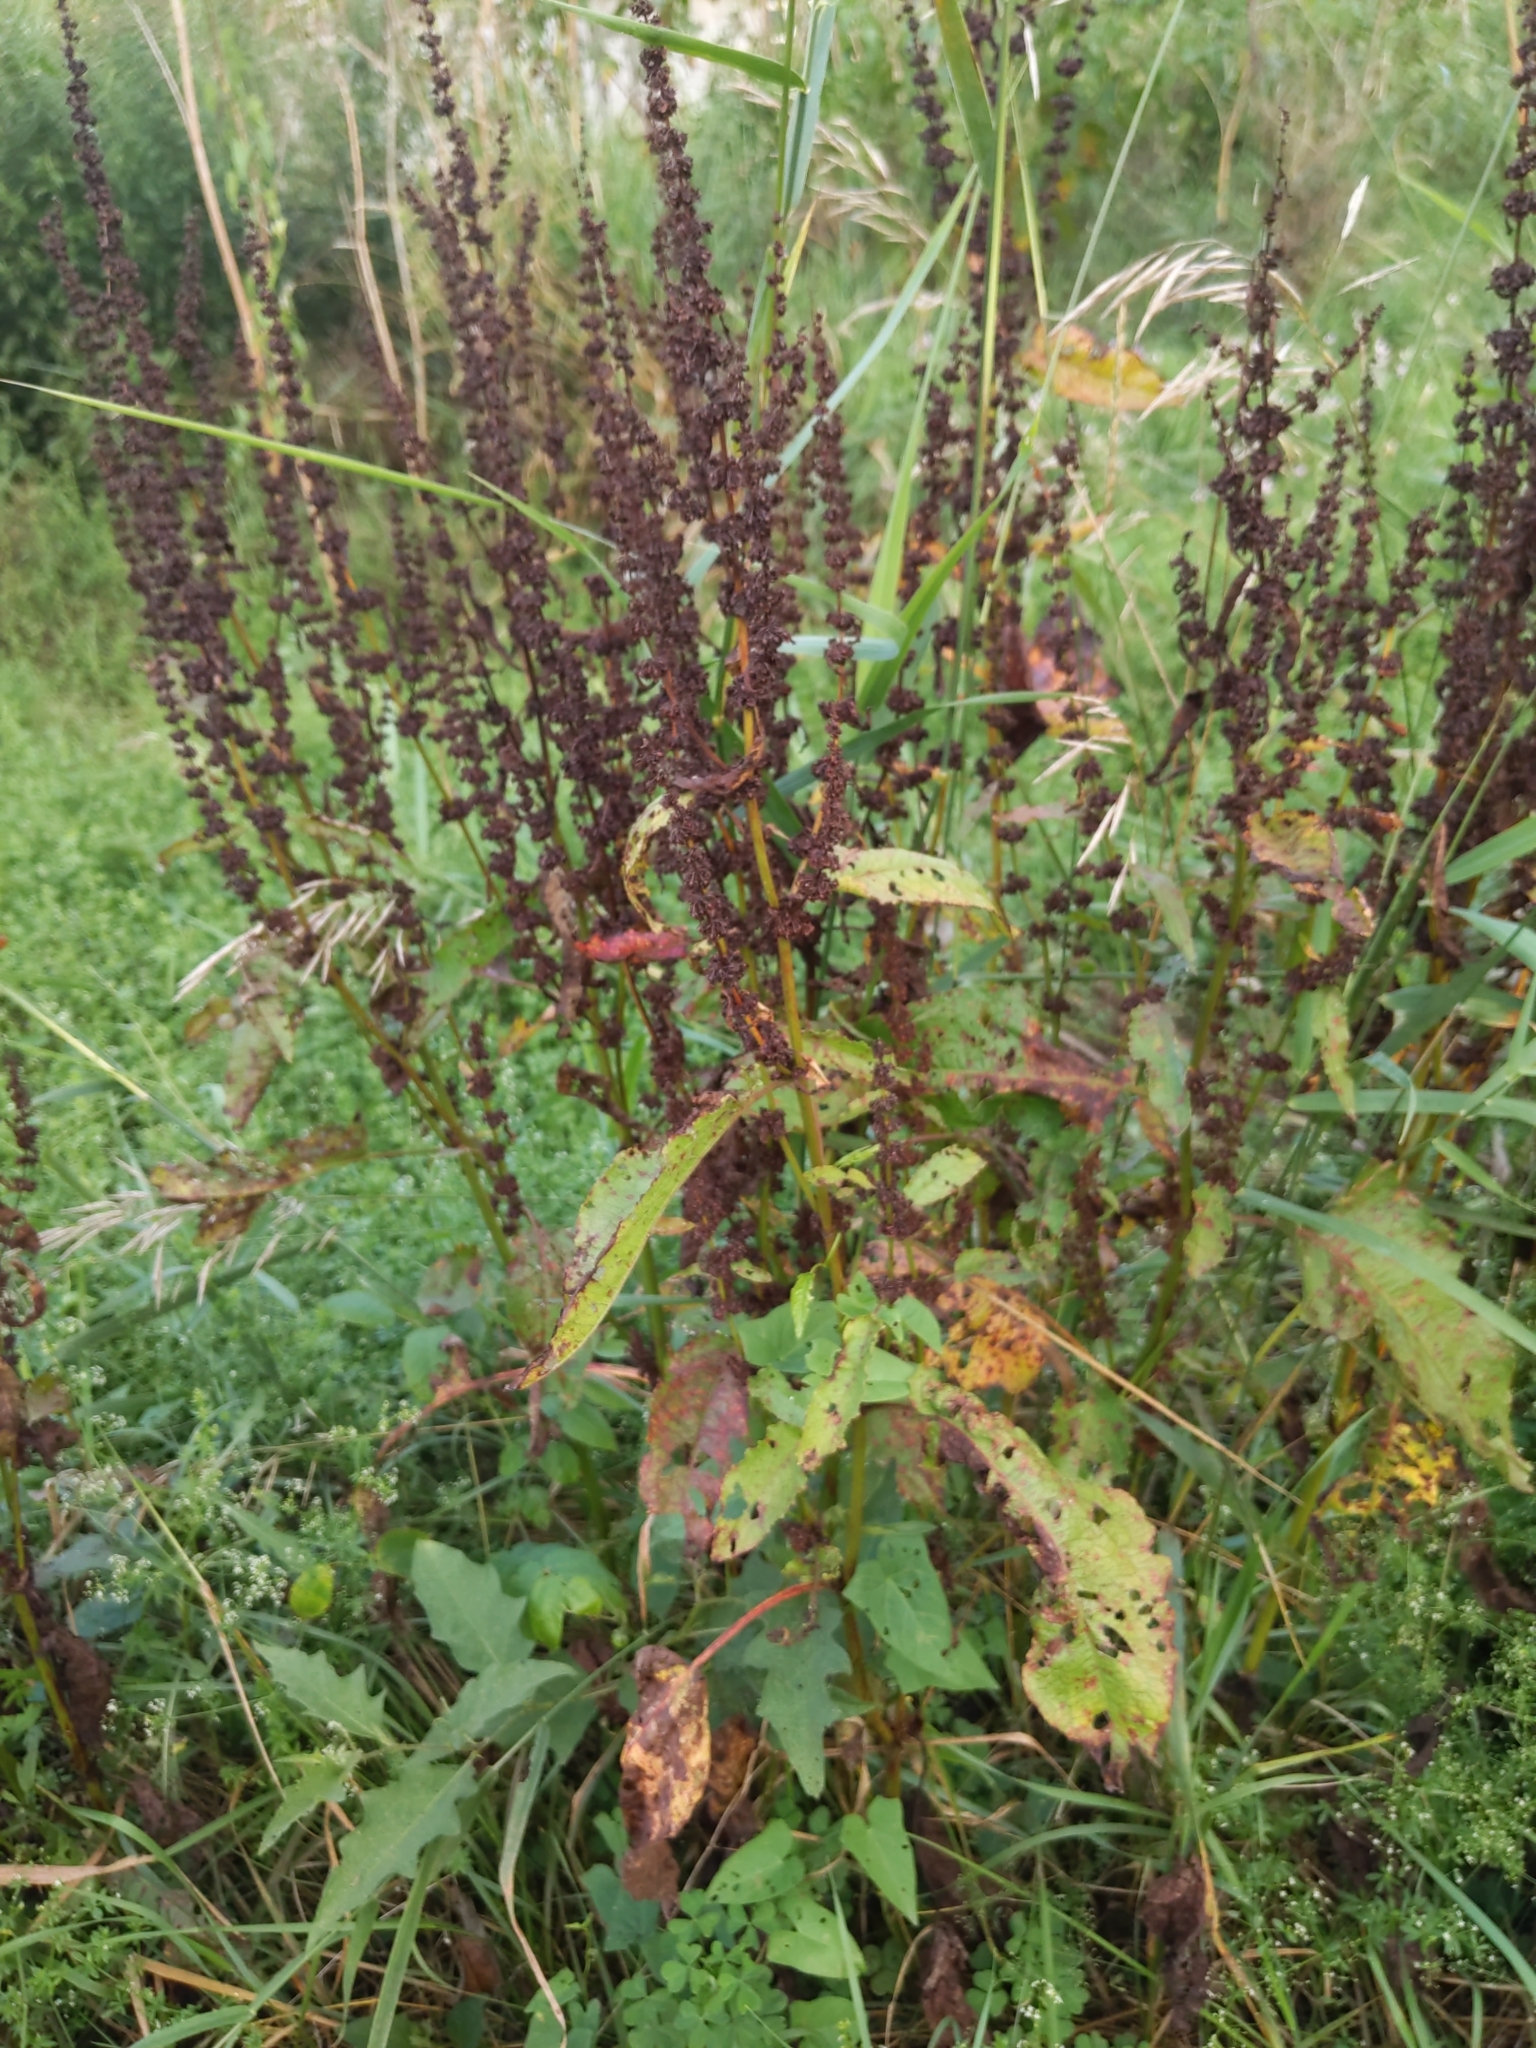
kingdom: Fungi
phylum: Ascomycota
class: Dothideomycetes
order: Mycosphaerellales
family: Mycosphaerellaceae
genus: Ramularia
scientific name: Ramularia rubella
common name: Red dock spot
